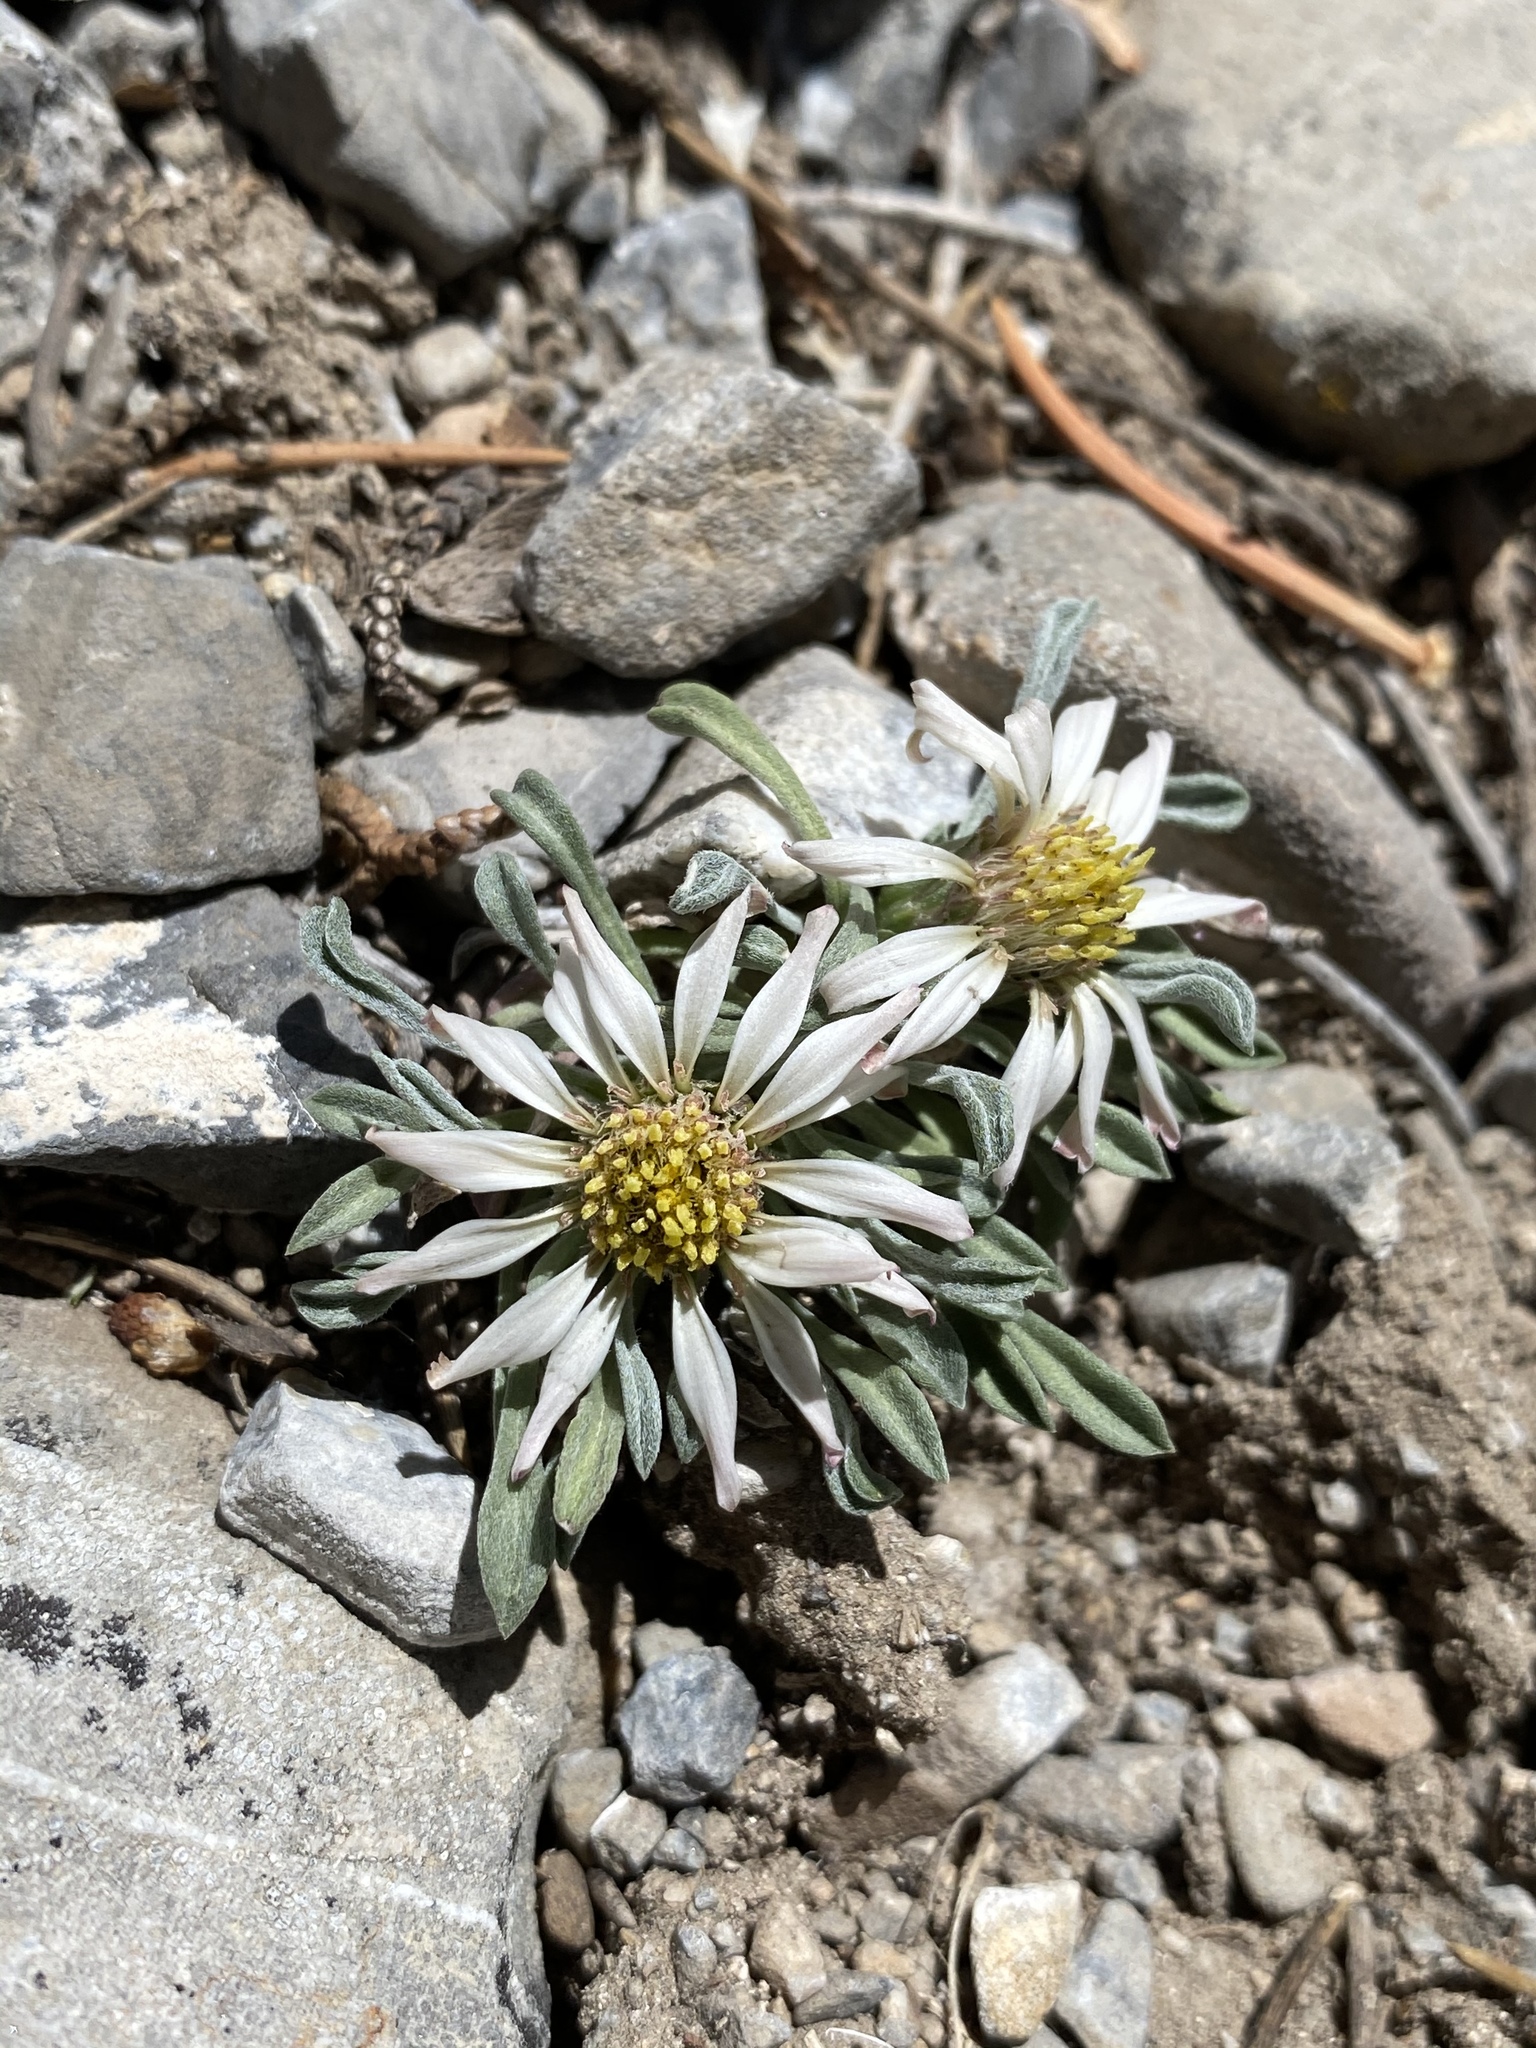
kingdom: Plantae
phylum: Tracheophyta
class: Magnoliopsida
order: Asterales
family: Asteraceae
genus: Townsendia
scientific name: Townsendia jonesii
